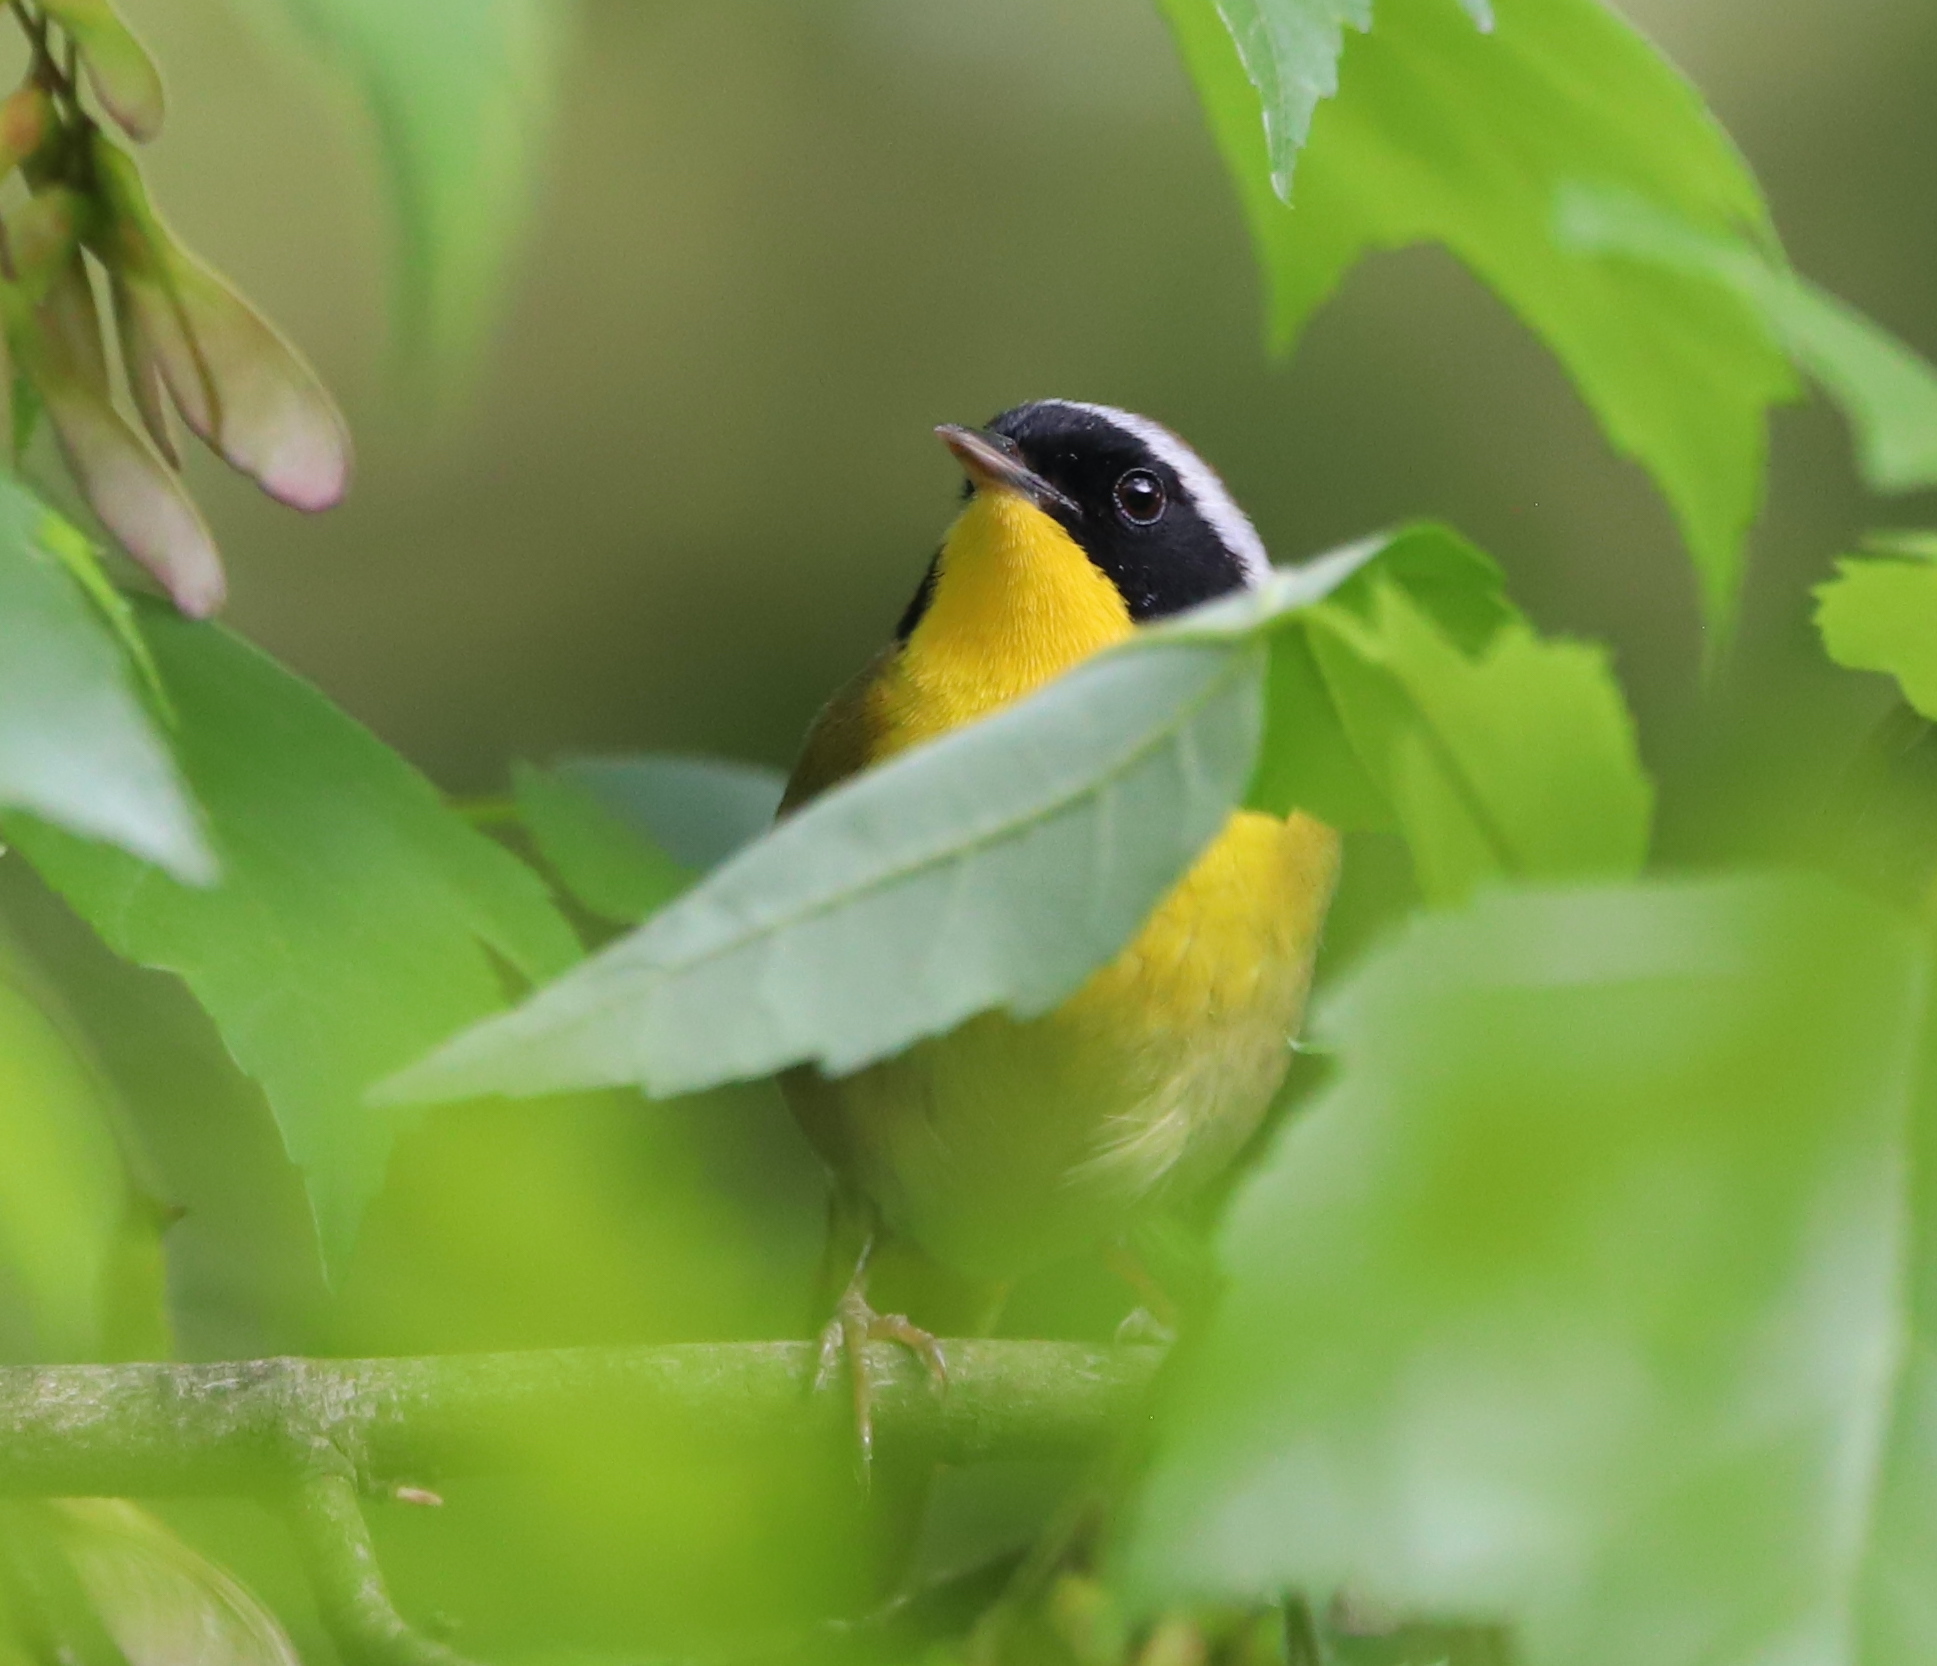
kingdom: Animalia
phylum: Chordata
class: Aves
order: Passeriformes
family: Parulidae
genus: Geothlypis
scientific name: Geothlypis trichas
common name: Common yellowthroat
